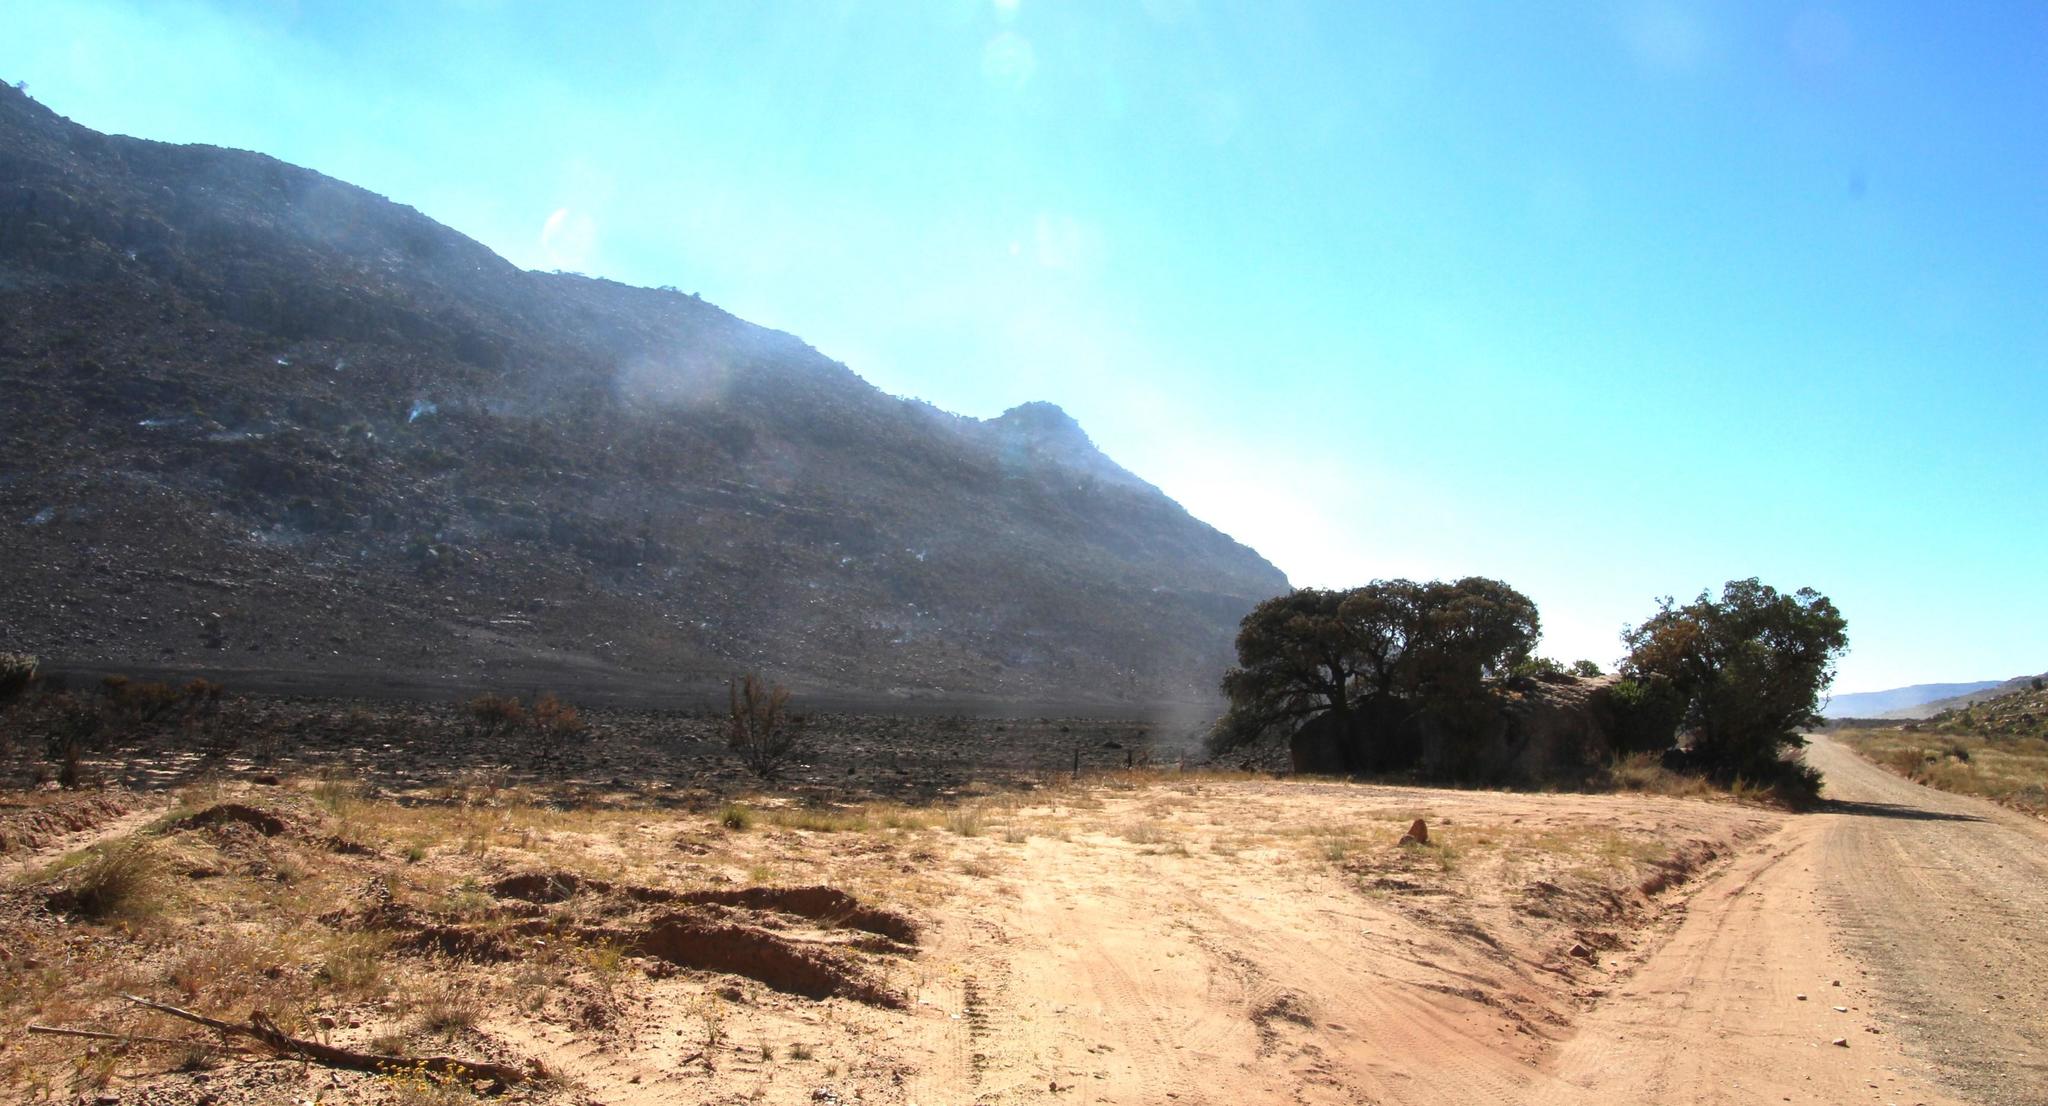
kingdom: Plantae
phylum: Tracheophyta
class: Magnoliopsida
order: Celastrales
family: Celastraceae
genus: Gymnosporia
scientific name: Gymnosporia laurina
